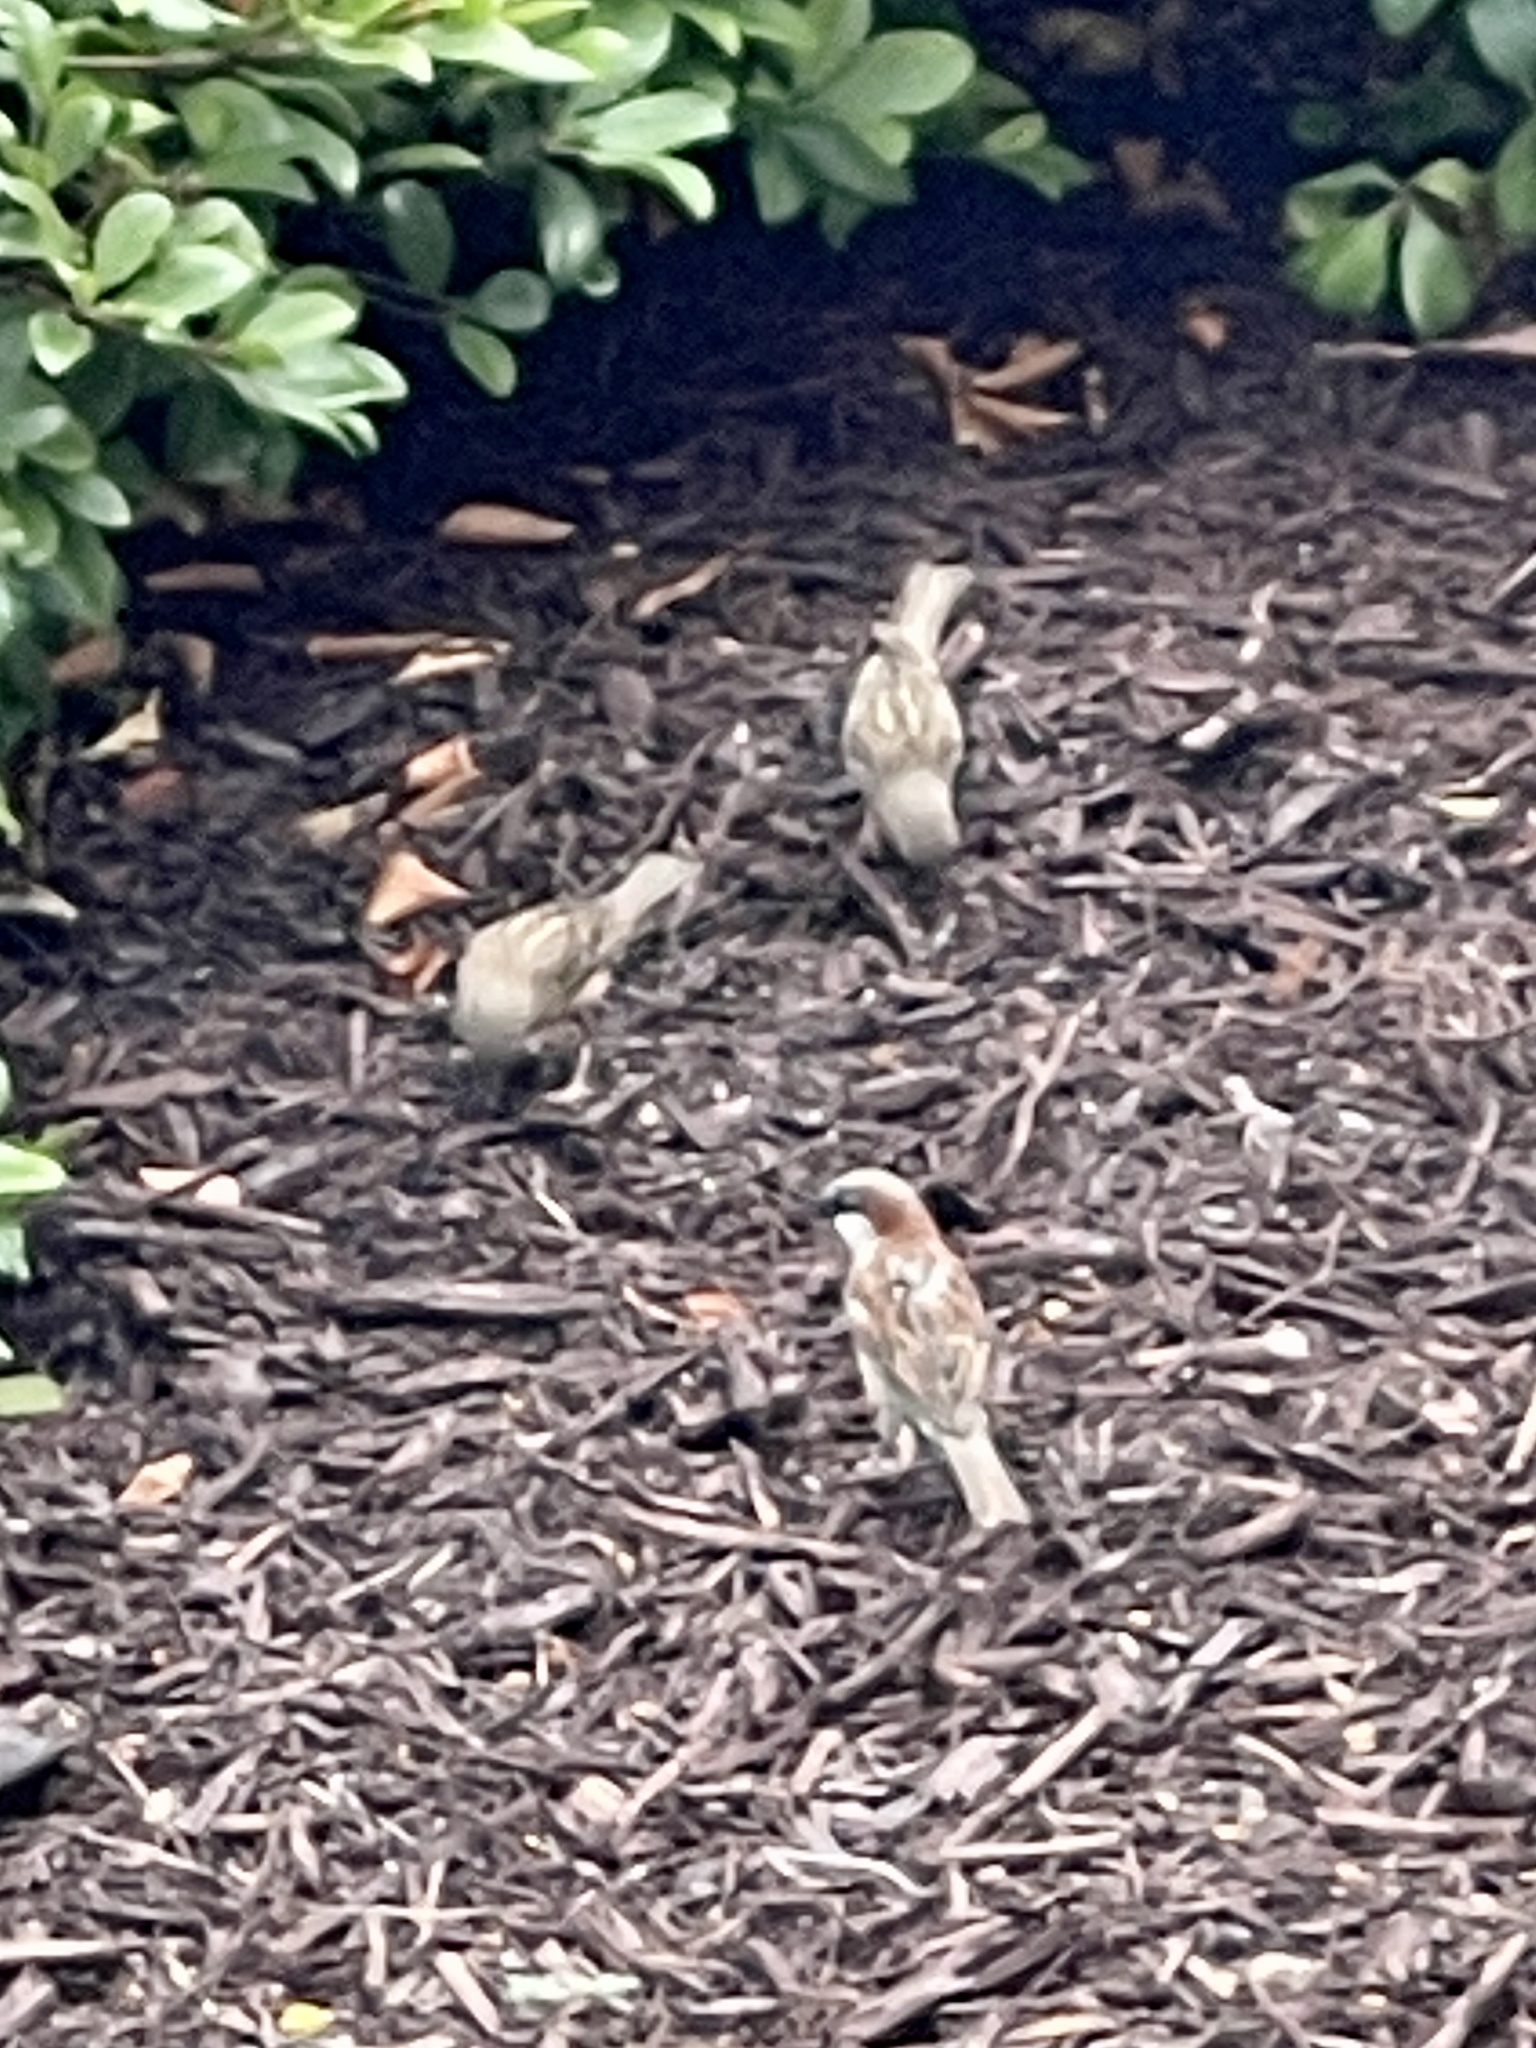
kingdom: Animalia
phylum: Chordata
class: Aves
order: Passeriformes
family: Passeridae
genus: Passer
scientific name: Passer domesticus
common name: House sparrow
